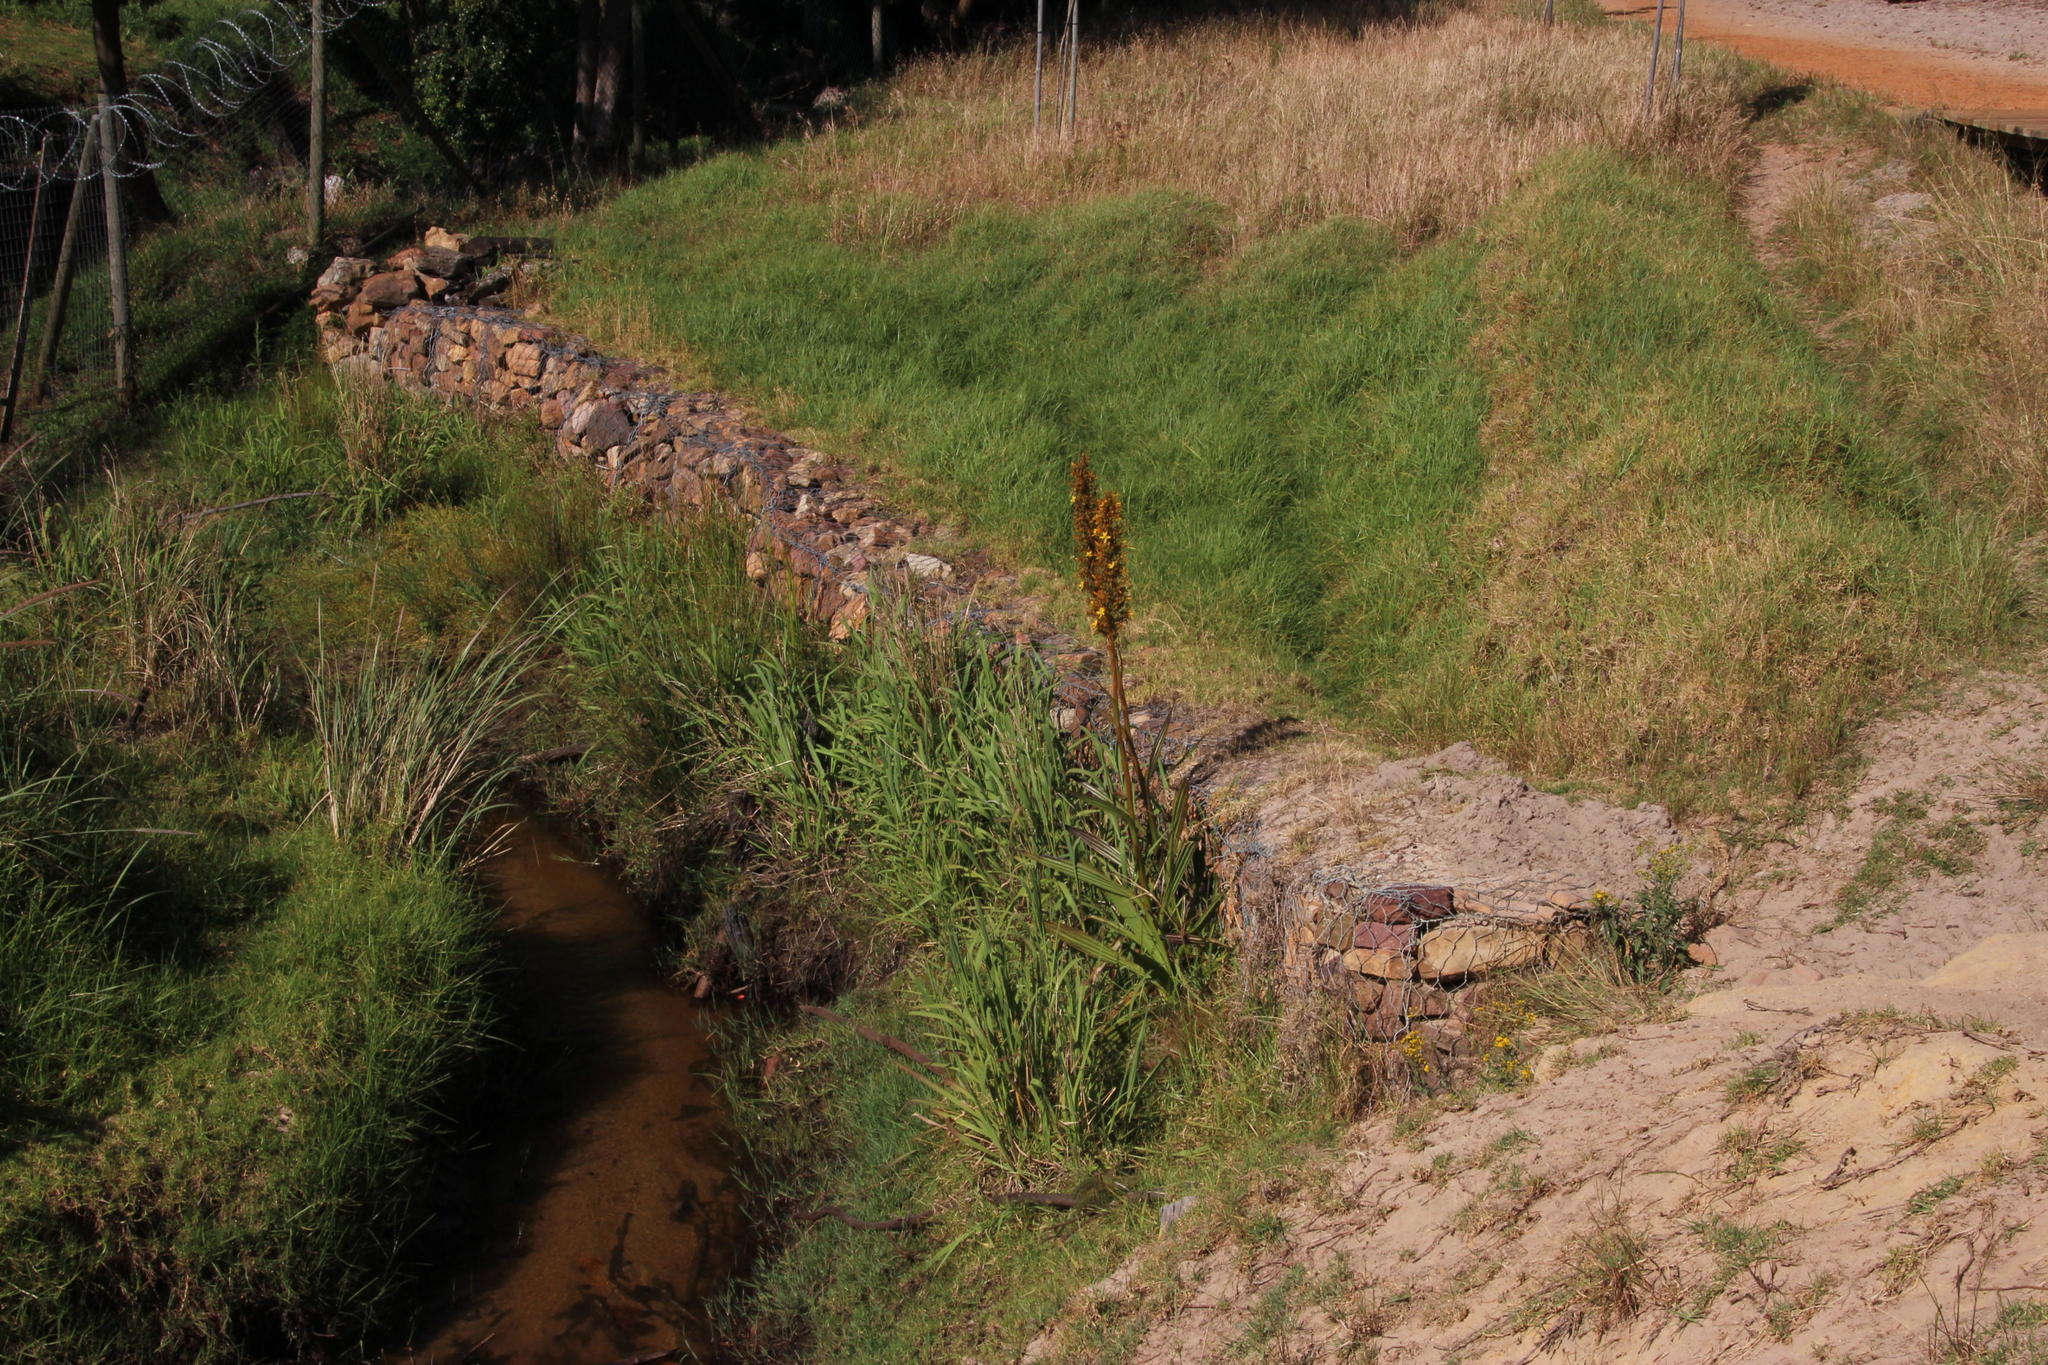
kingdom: Plantae
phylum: Tracheophyta
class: Liliopsida
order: Commelinales
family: Haemodoraceae
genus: Wachendorfia
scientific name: Wachendorfia thyrsiflora
